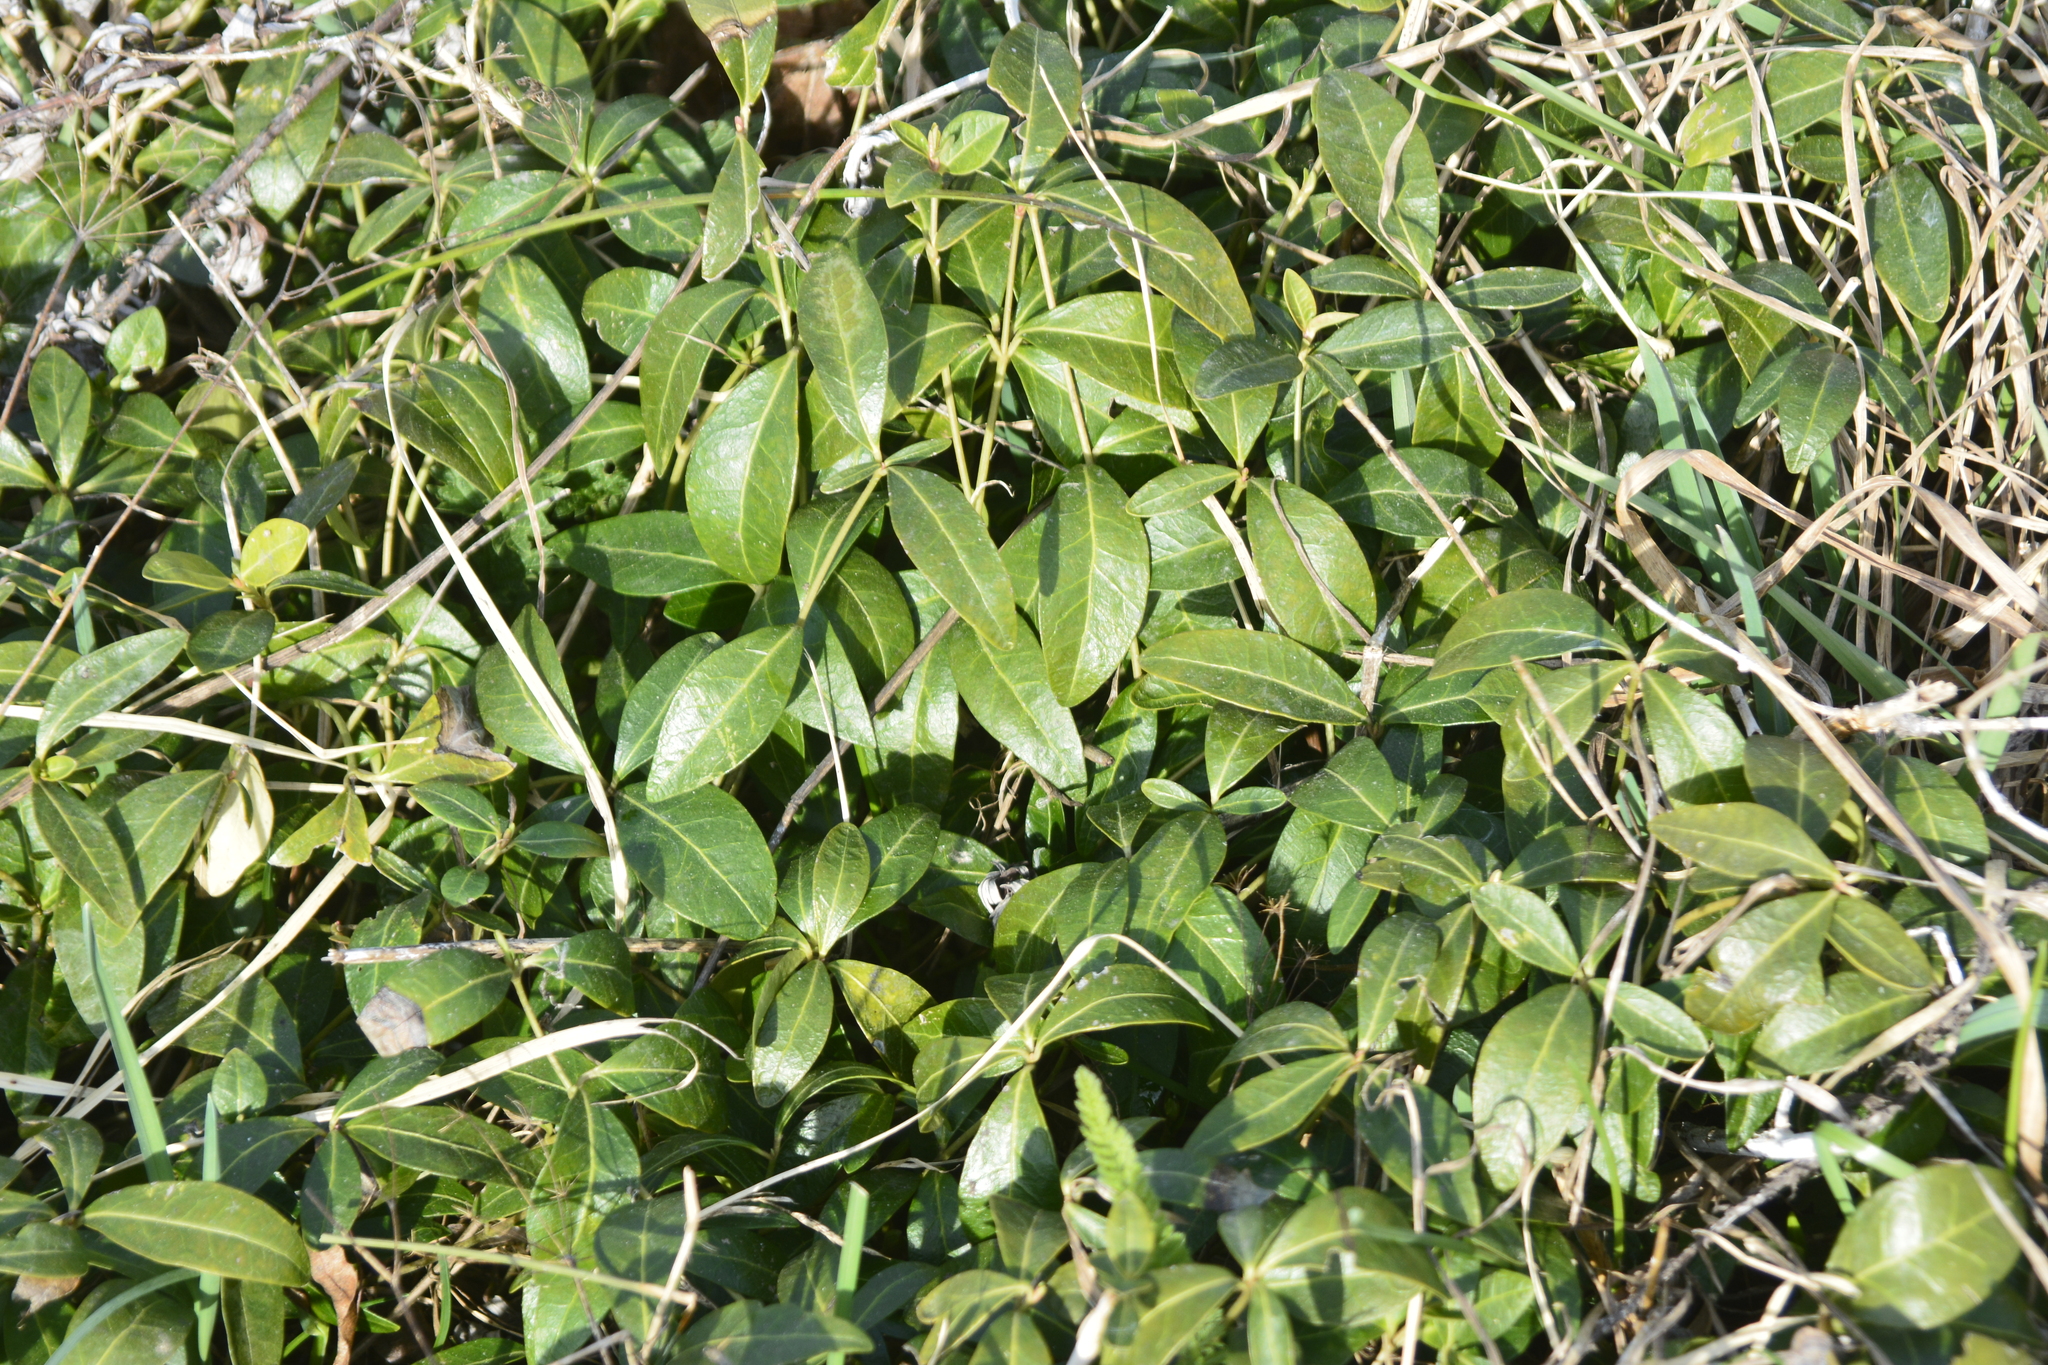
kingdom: Plantae
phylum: Tracheophyta
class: Magnoliopsida
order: Gentianales
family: Apocynaceae
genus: Vinca
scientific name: Vinca minor
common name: Lesser periwinkle
